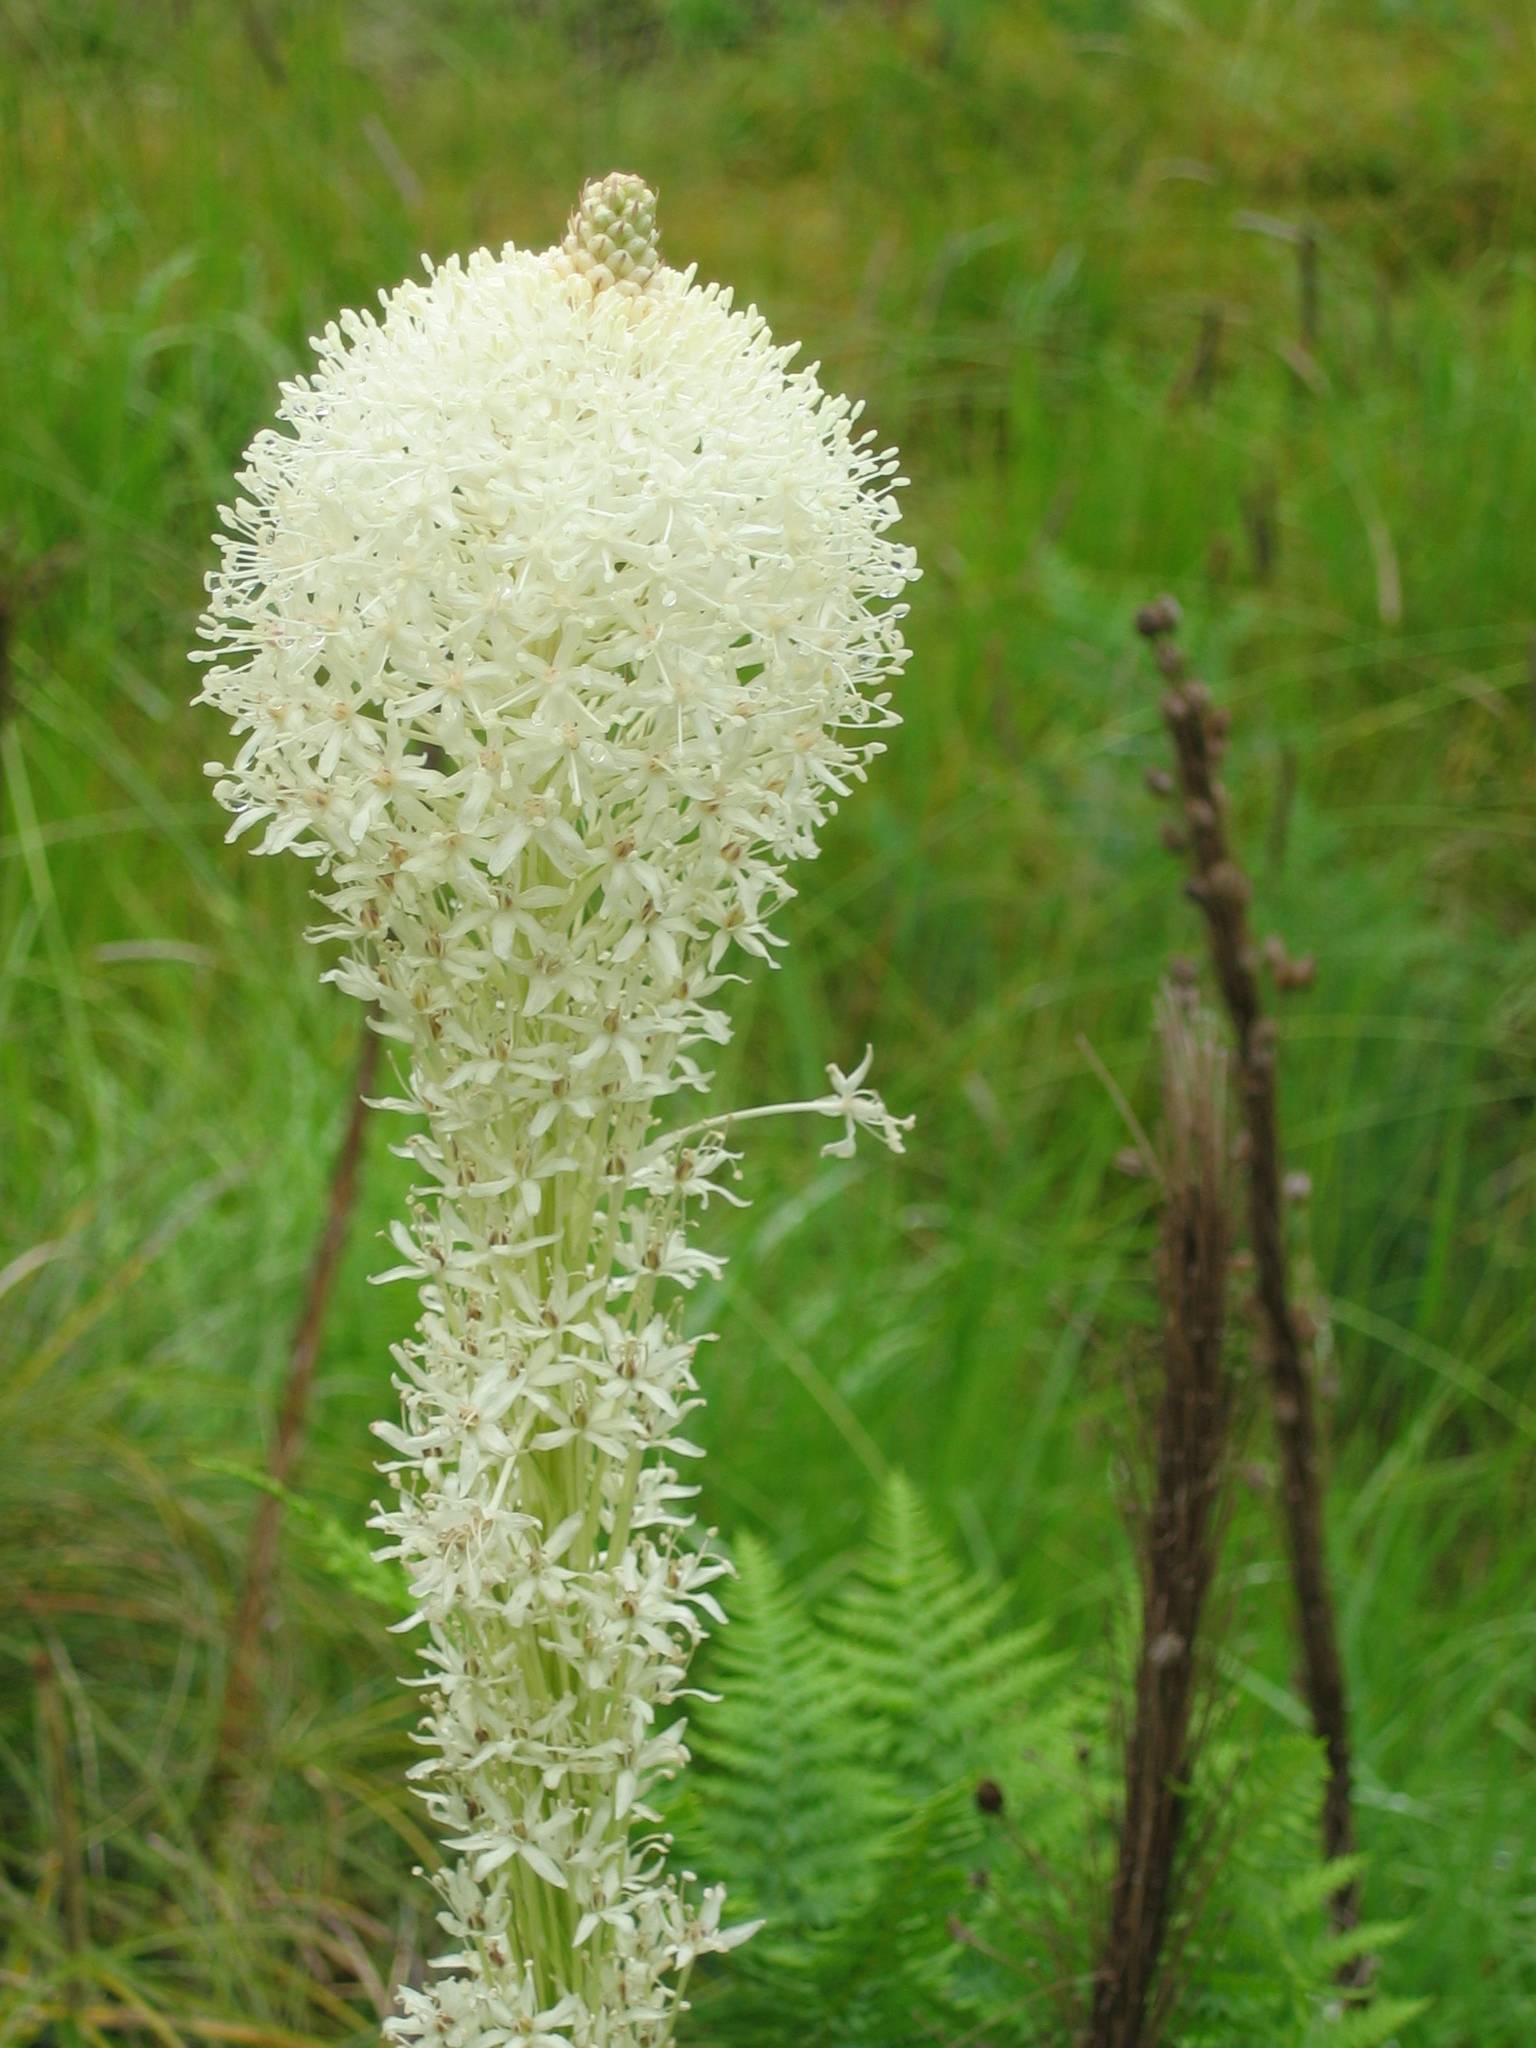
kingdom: Plantae
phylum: Tracheophyta
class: Liliopsida
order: Liliales
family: Melanthiaceae
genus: Xerophyllum
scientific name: Xerophyllum tenax
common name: Bear-grass
